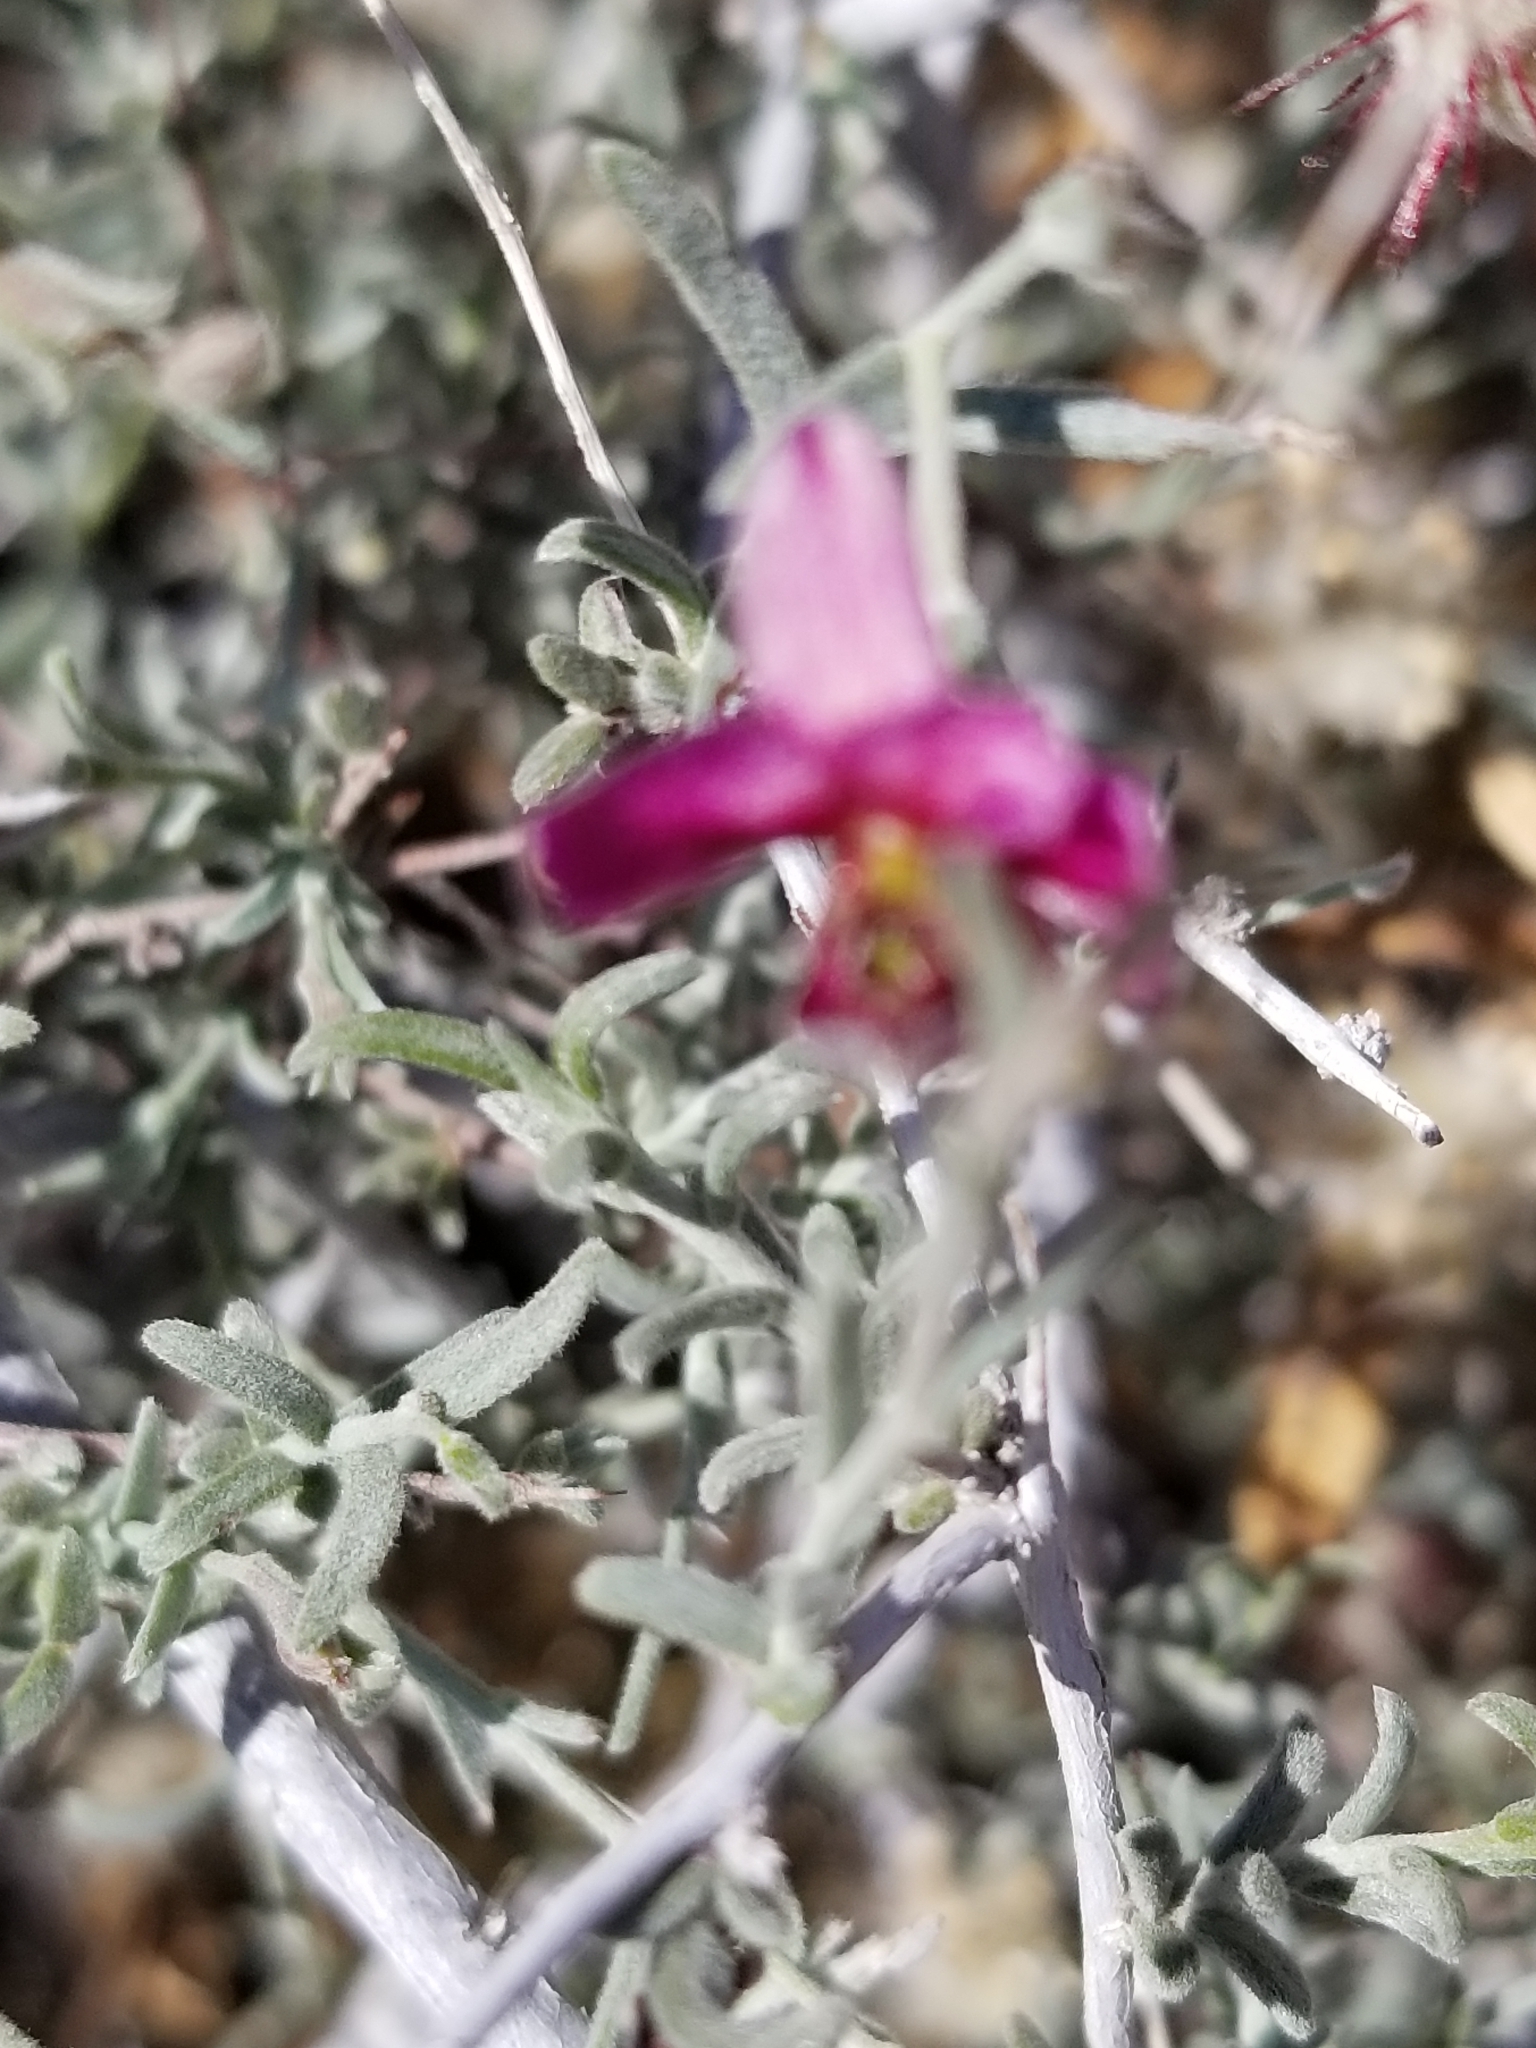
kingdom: Plantae
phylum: Tracheophyta
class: Magnoliopsida
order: Zygophyllales
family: Krameriaceae
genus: Krameria
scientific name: Krameria bicolor
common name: White ratany
